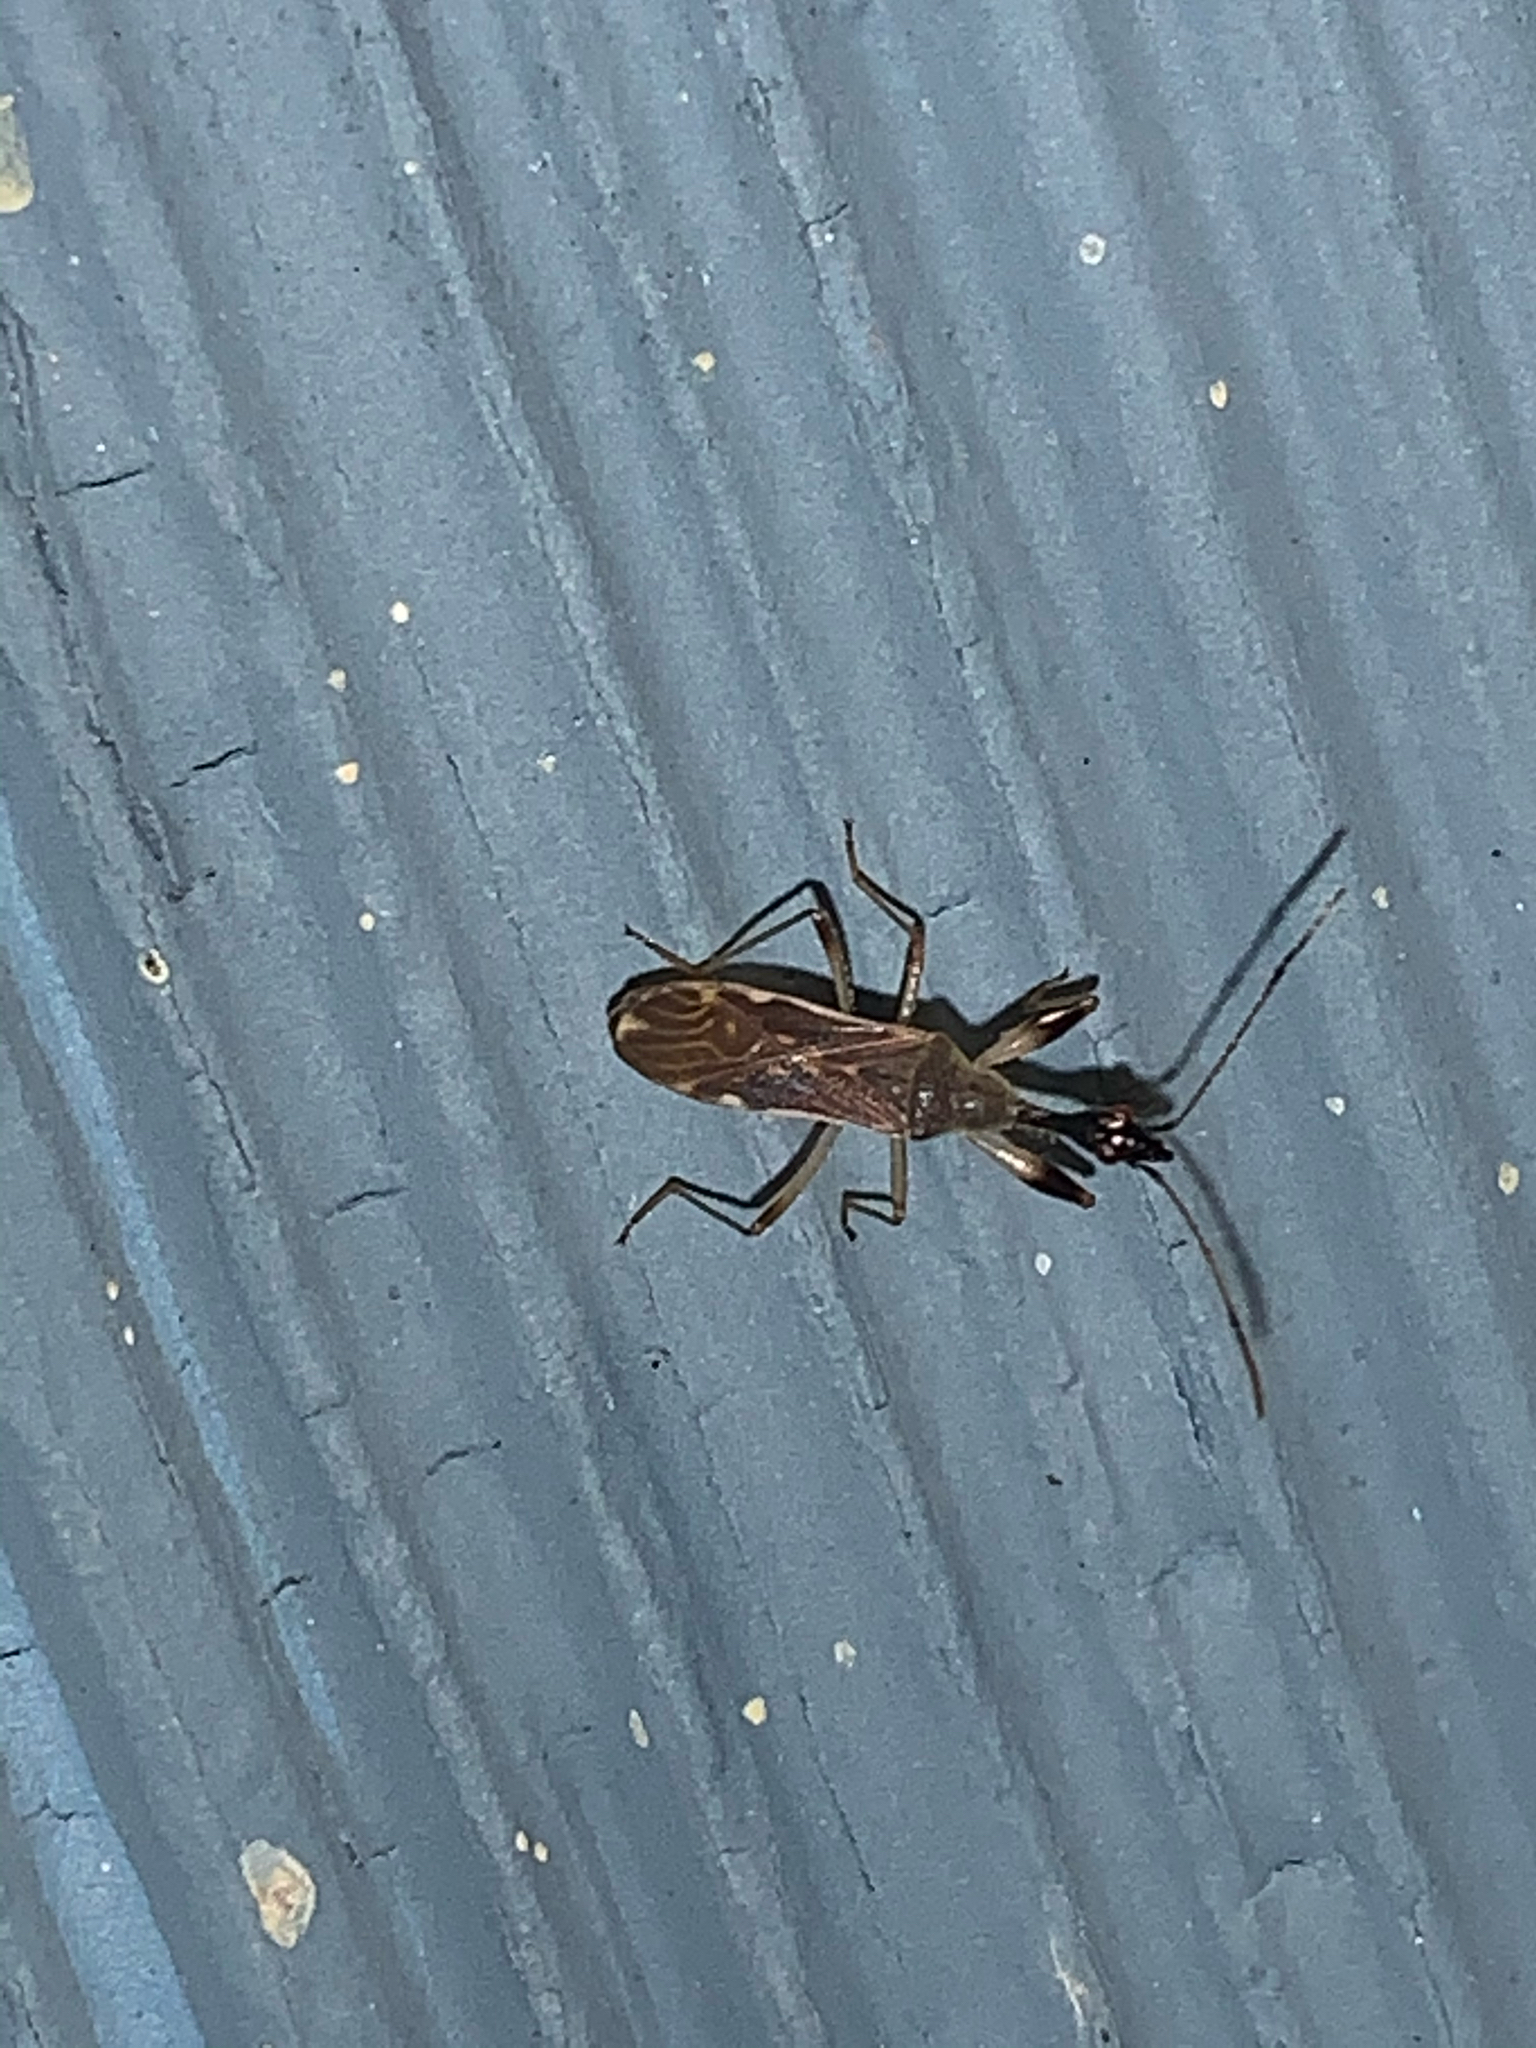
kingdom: Animalia
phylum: Arthropoda
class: Insecta
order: Hemiptera
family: Rhyparochromidae
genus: Myodocha
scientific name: Myodocha serripes
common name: Long-necked seed bug
